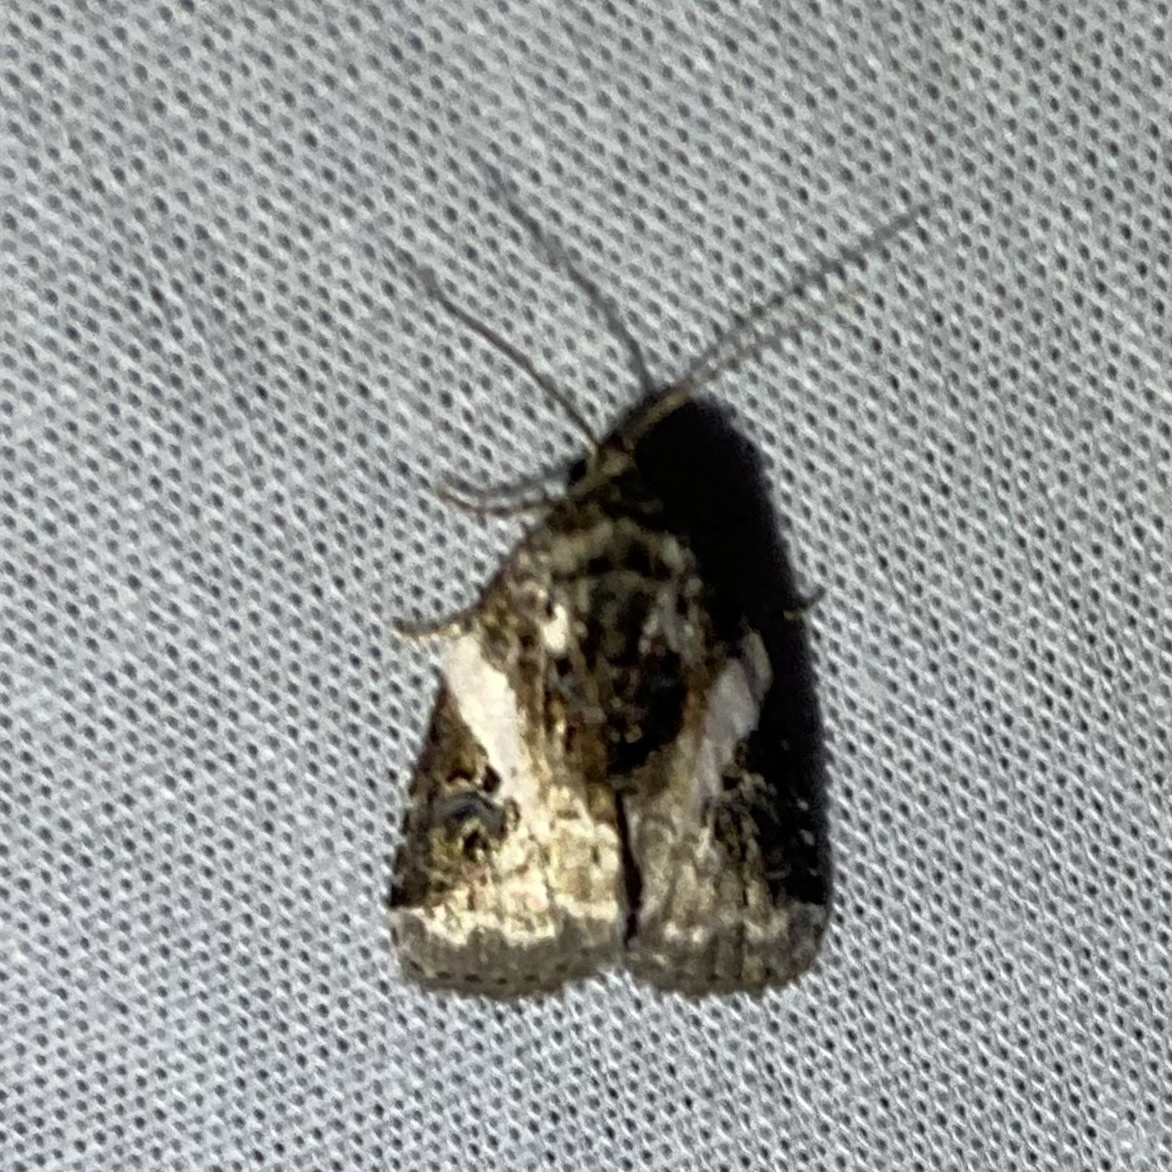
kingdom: Animalia
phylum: Arthropoda
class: Insecta
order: Lepidoptera
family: Noctuidae
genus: Pseudeustrotia
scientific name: Pseudeustrotia carneola
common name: Pink-barred lithacodia moth
